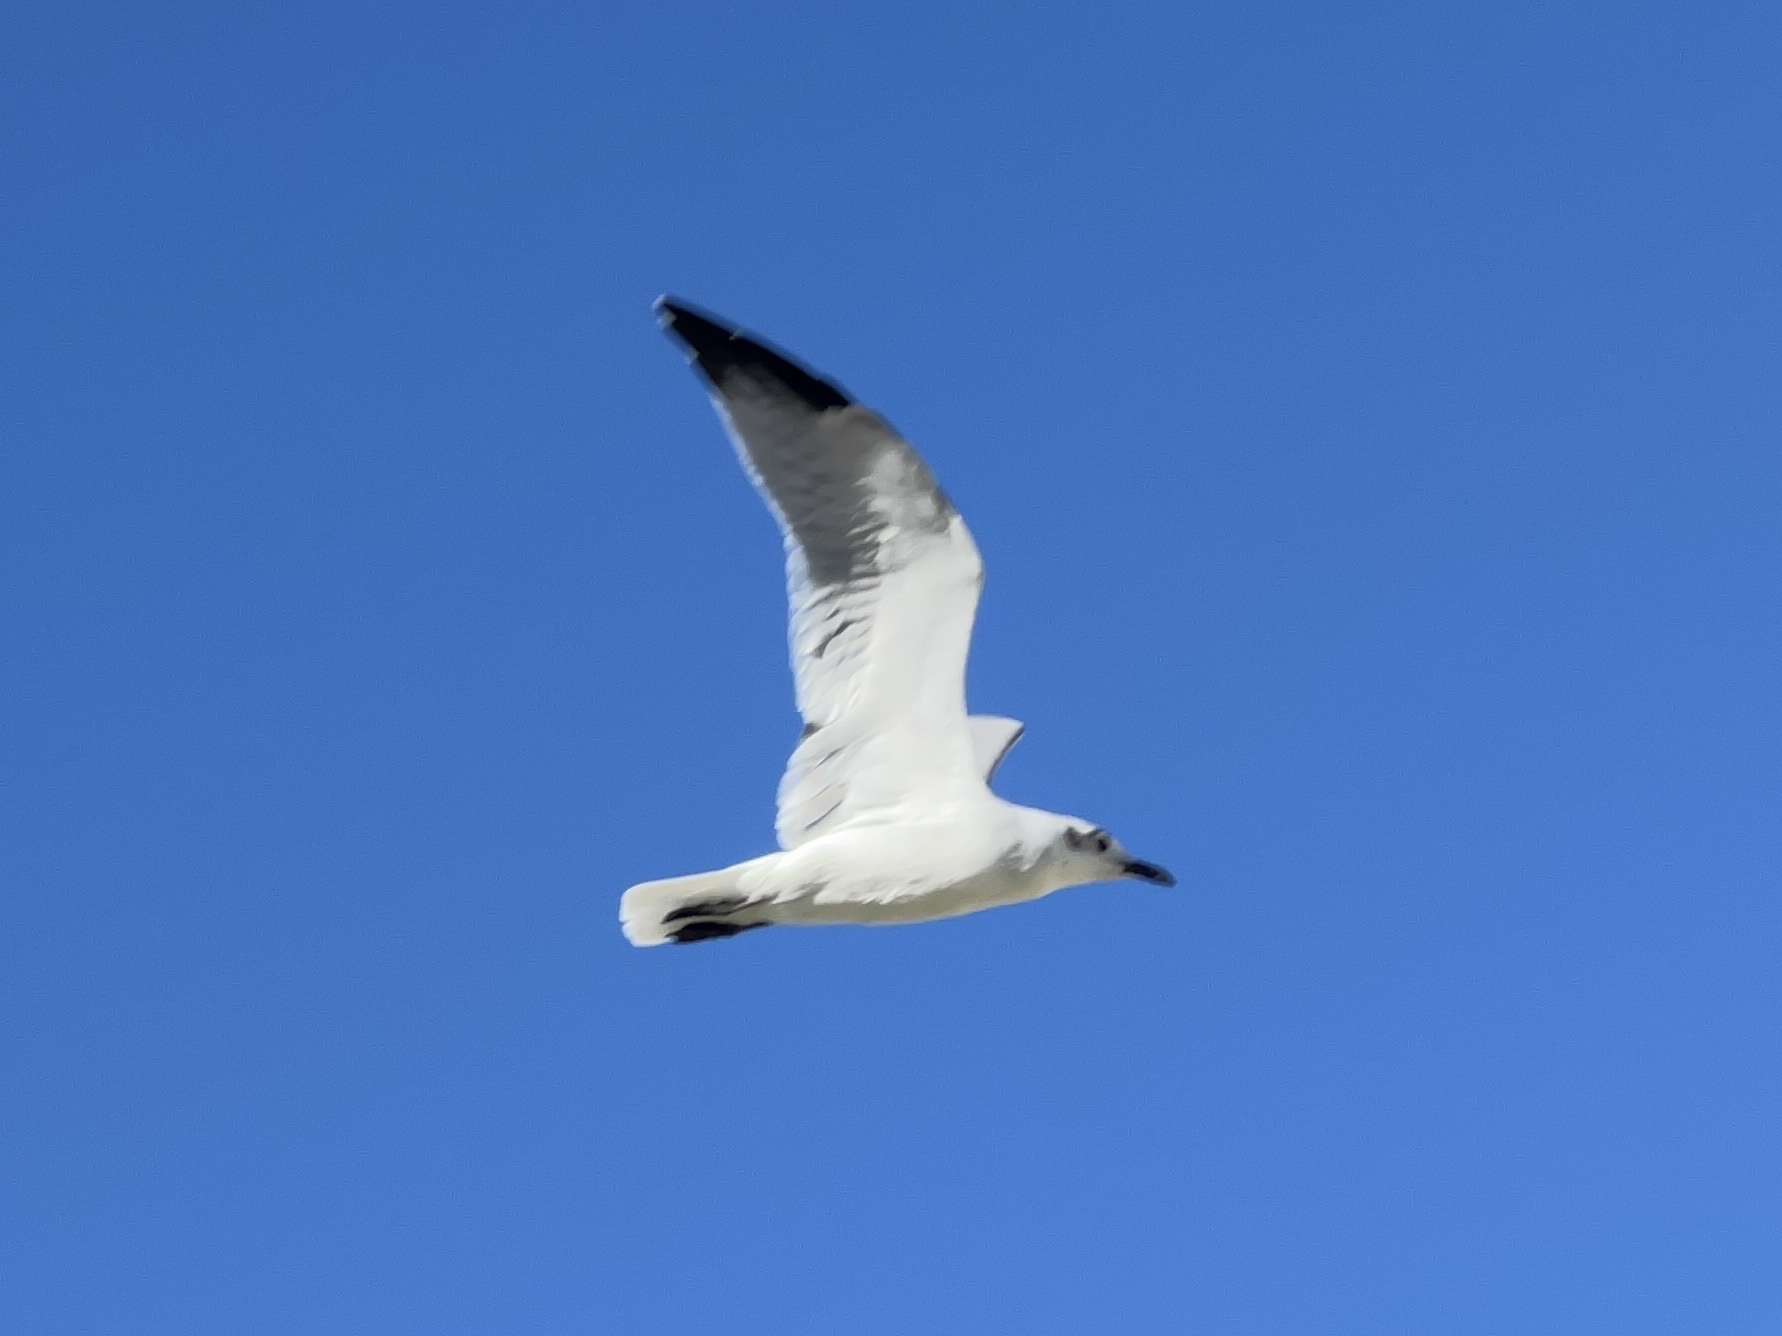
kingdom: Animalia
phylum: Chordata
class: Aves
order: Charadriiformes
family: Laridae
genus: Leucophaeus
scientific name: Leucophaeus atricilla
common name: Laughing gull
